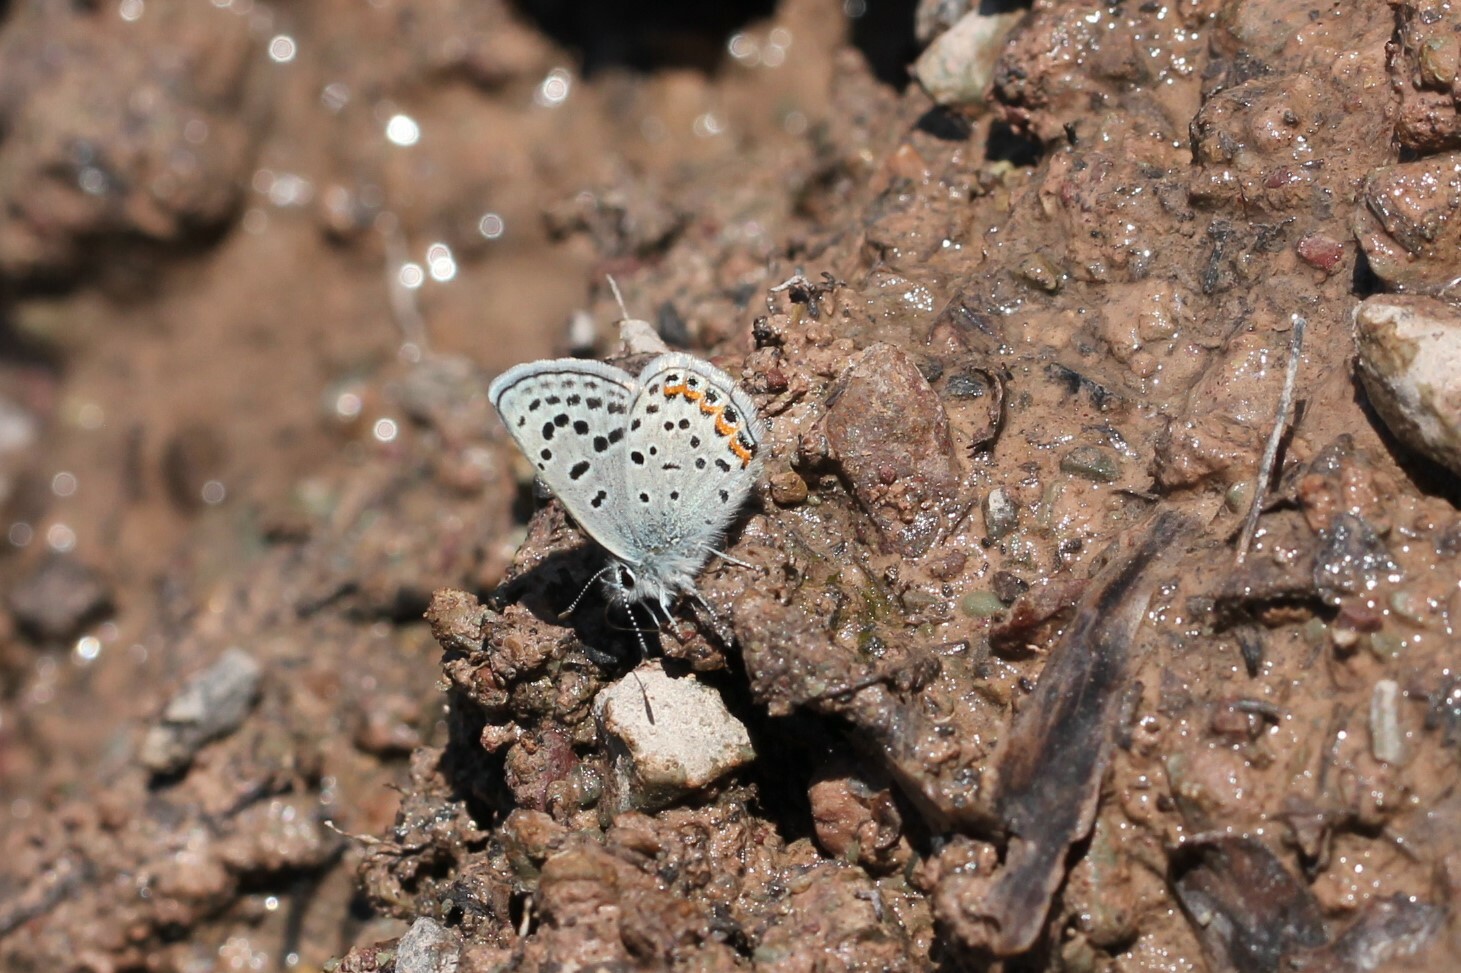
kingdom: Animalia
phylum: Arthropoda
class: Insecta
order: Lepidoptera
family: Lycaenidae
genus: Icaricia
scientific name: Icaricia lupini
